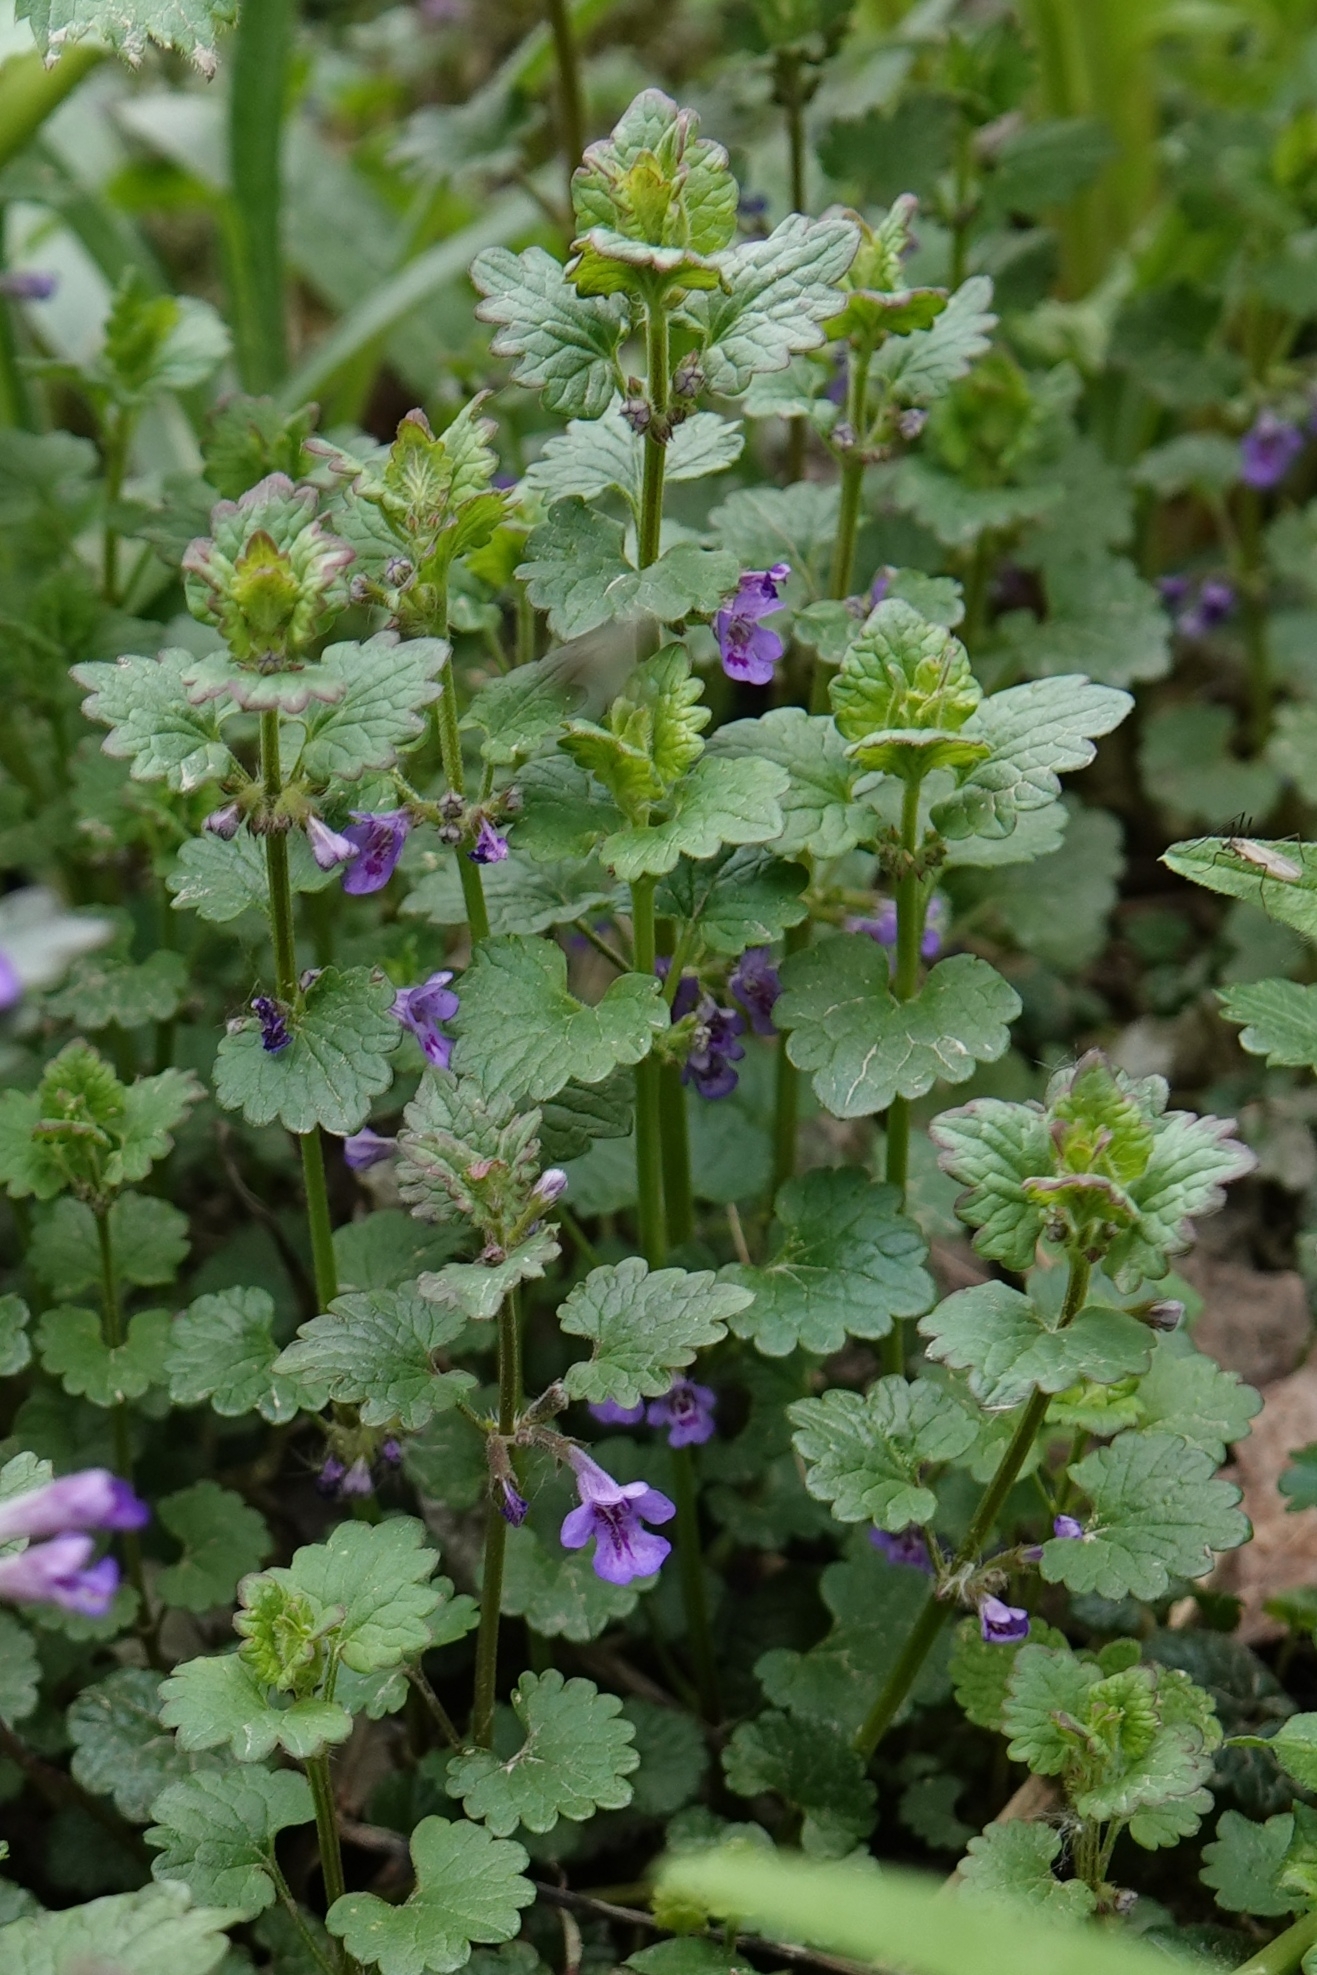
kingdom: Plantae
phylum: Tracheophyta
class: Magnoliopsida
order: Lamiales
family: Lamiaceae
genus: Glechoma
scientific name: Glechoma hederacea
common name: Ground ivy
